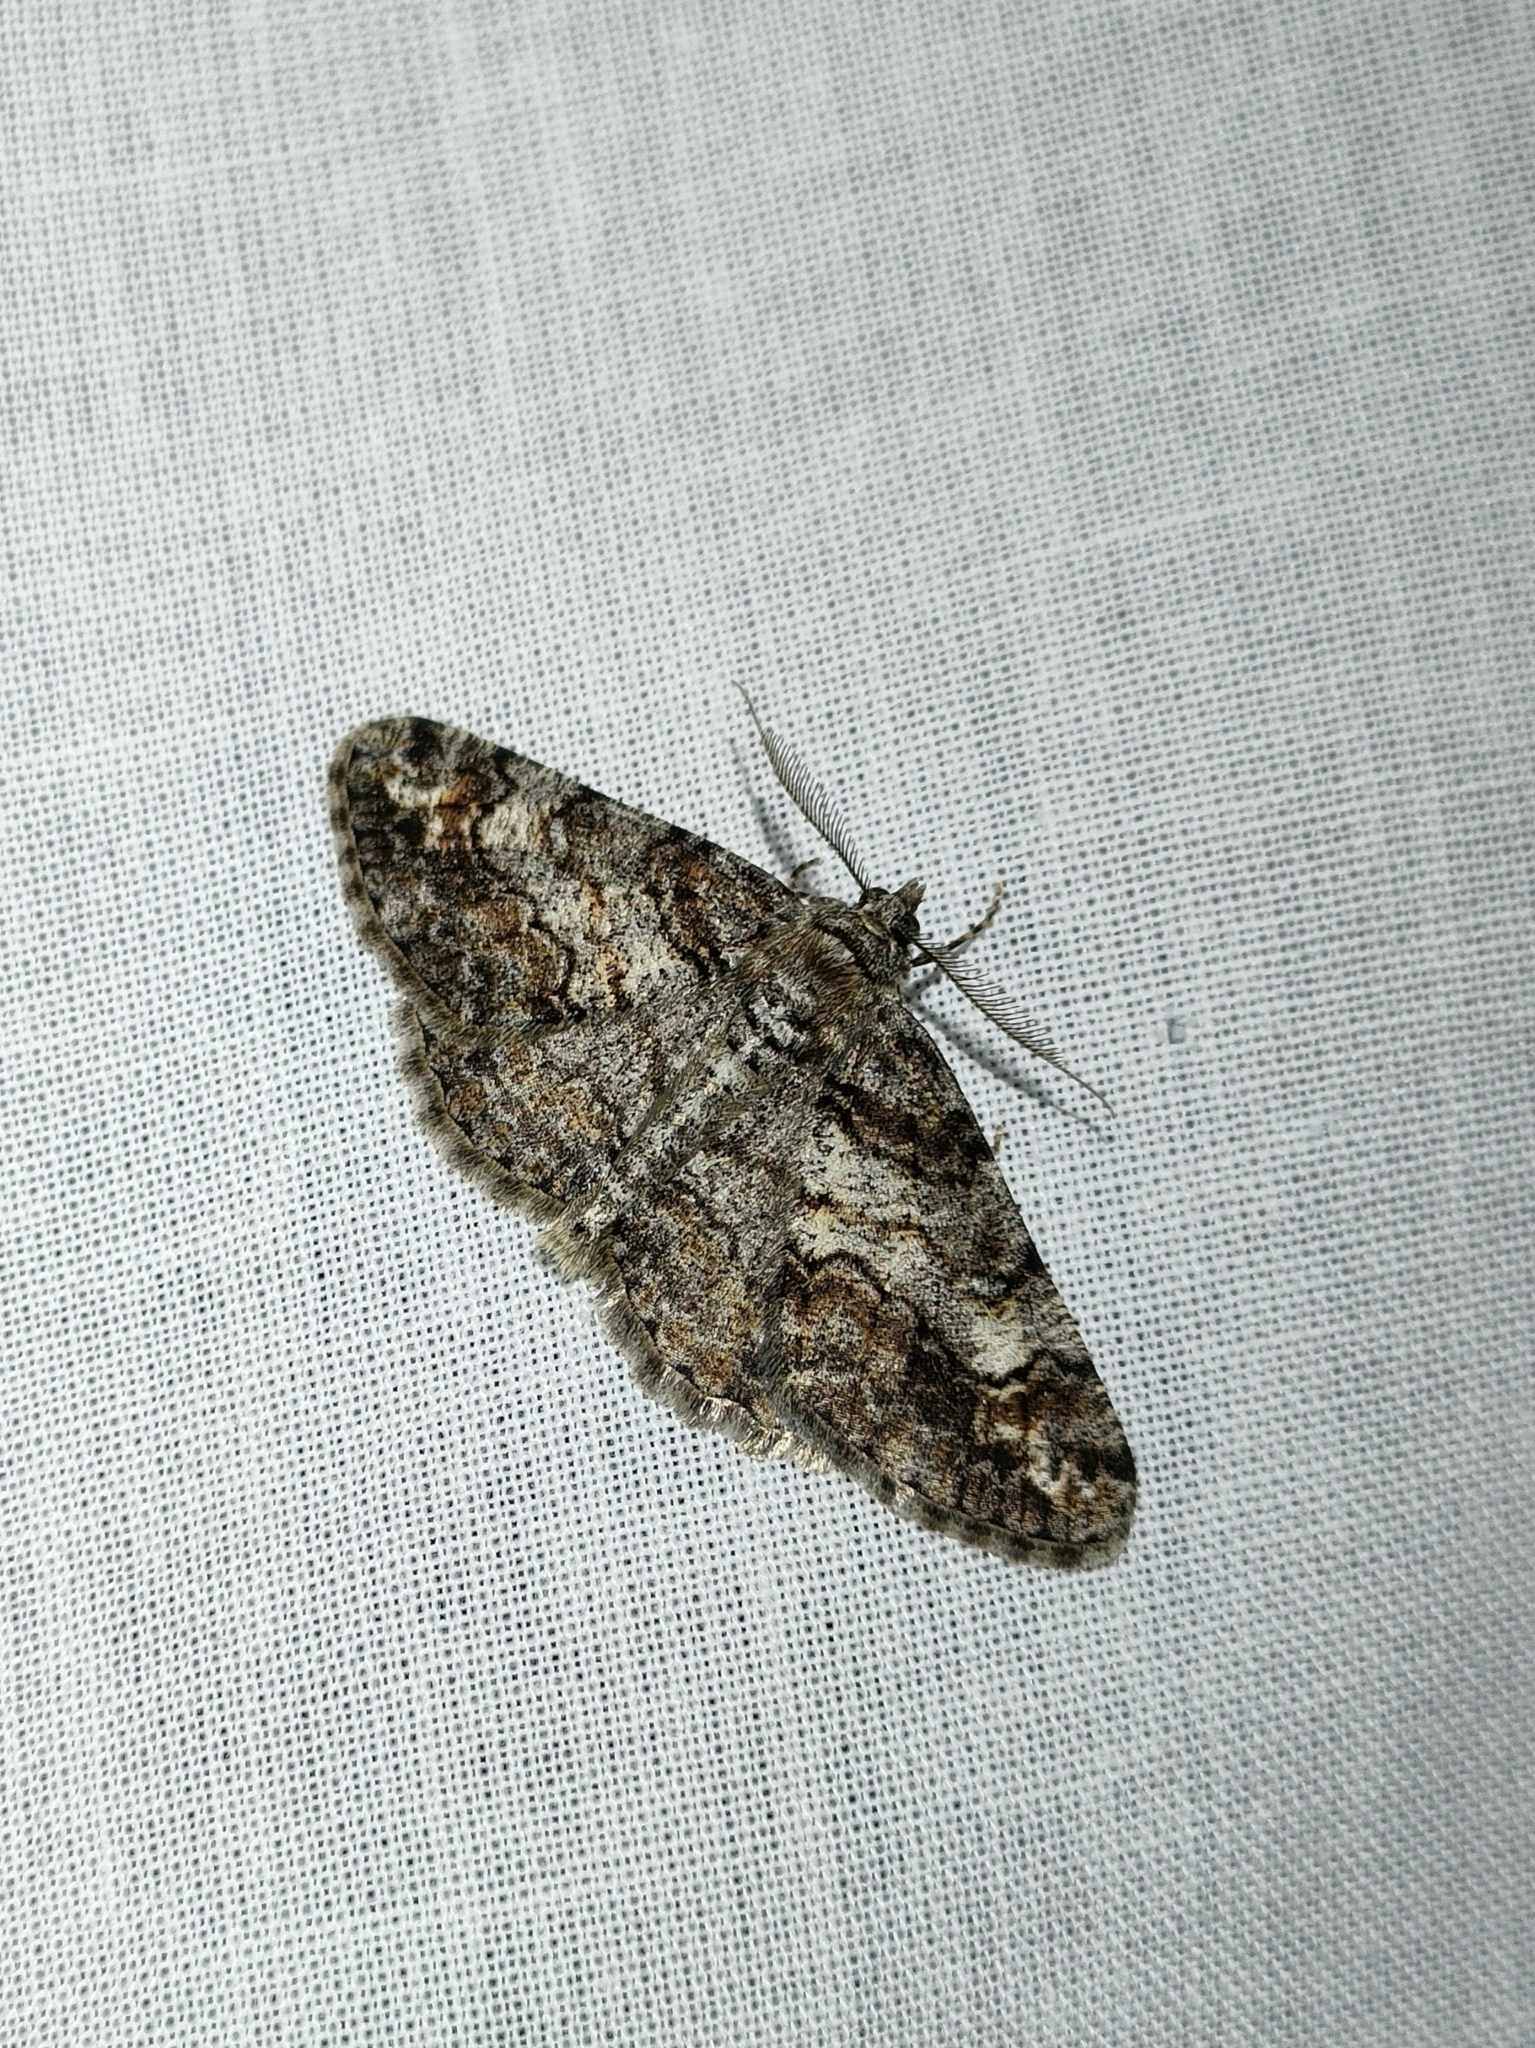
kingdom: Animalia
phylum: Arthropoda
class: Insecta
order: Lepidoptera
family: Geometridae
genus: Cleora
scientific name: Cleora cinctaria
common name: Ringed carpet
